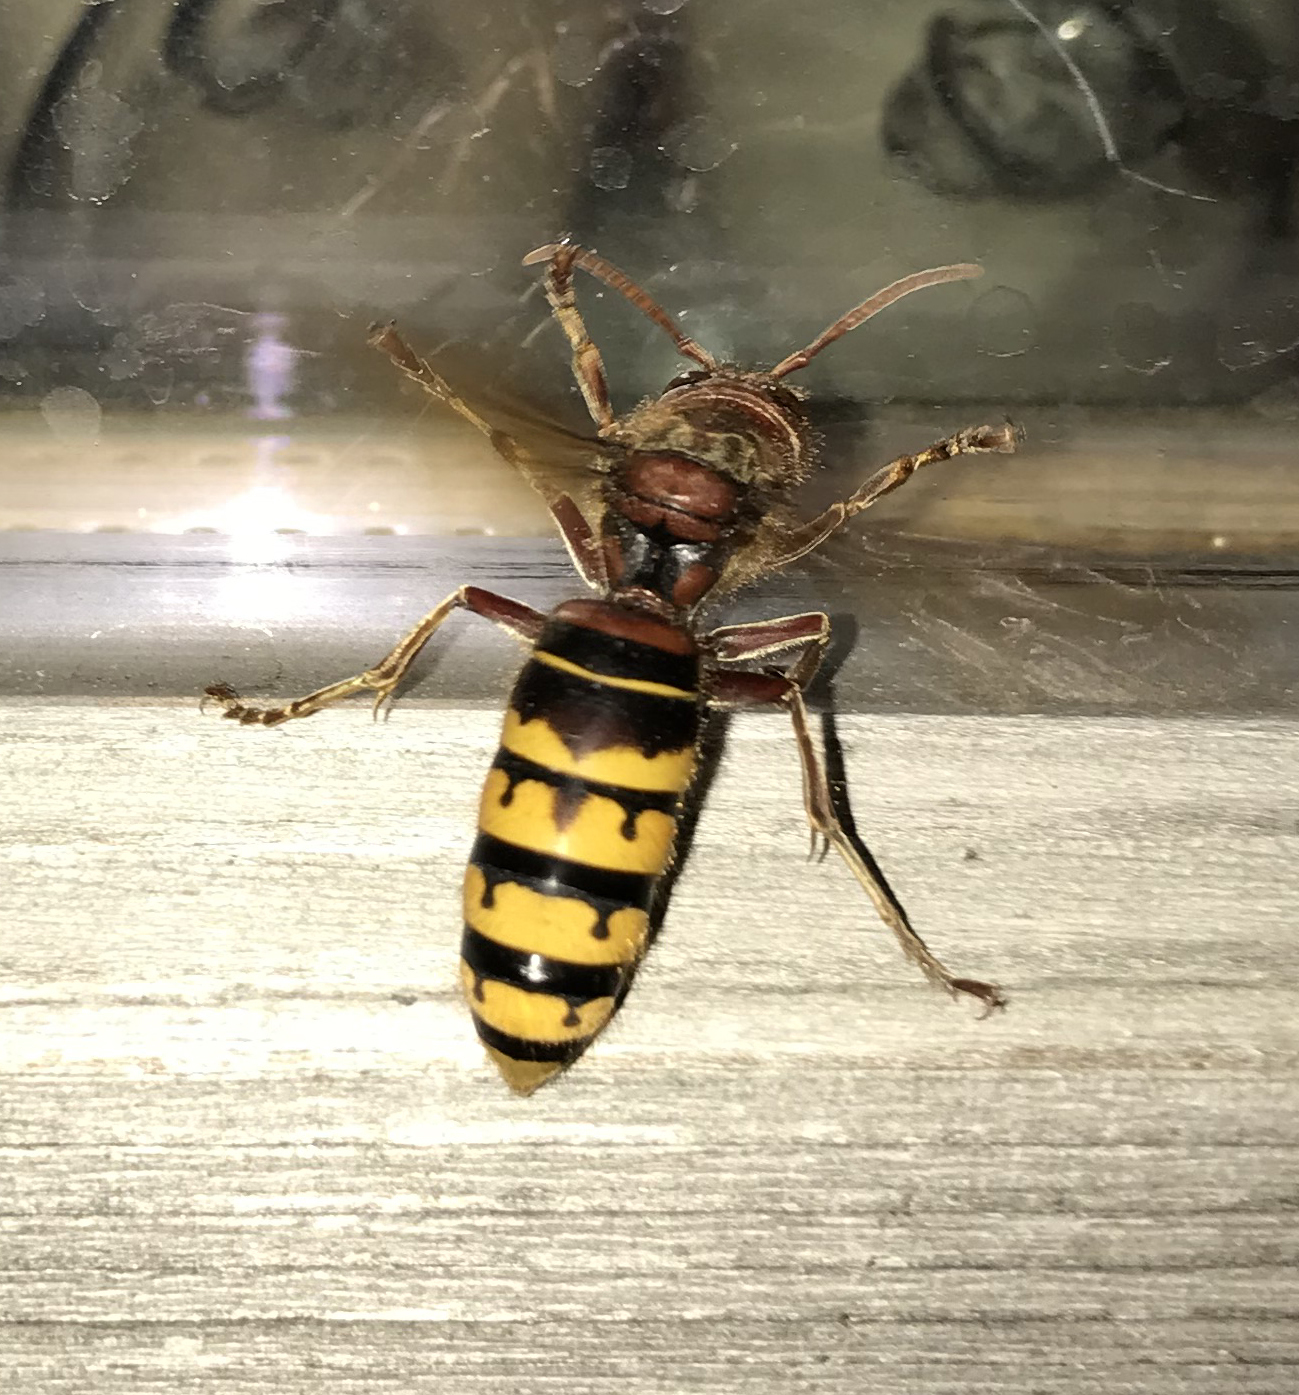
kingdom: Animalia
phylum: Arthropoda
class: Insecta
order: Hymenoptera
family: Vespidae
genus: Vespa
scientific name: Vespa crabro
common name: Hornet
